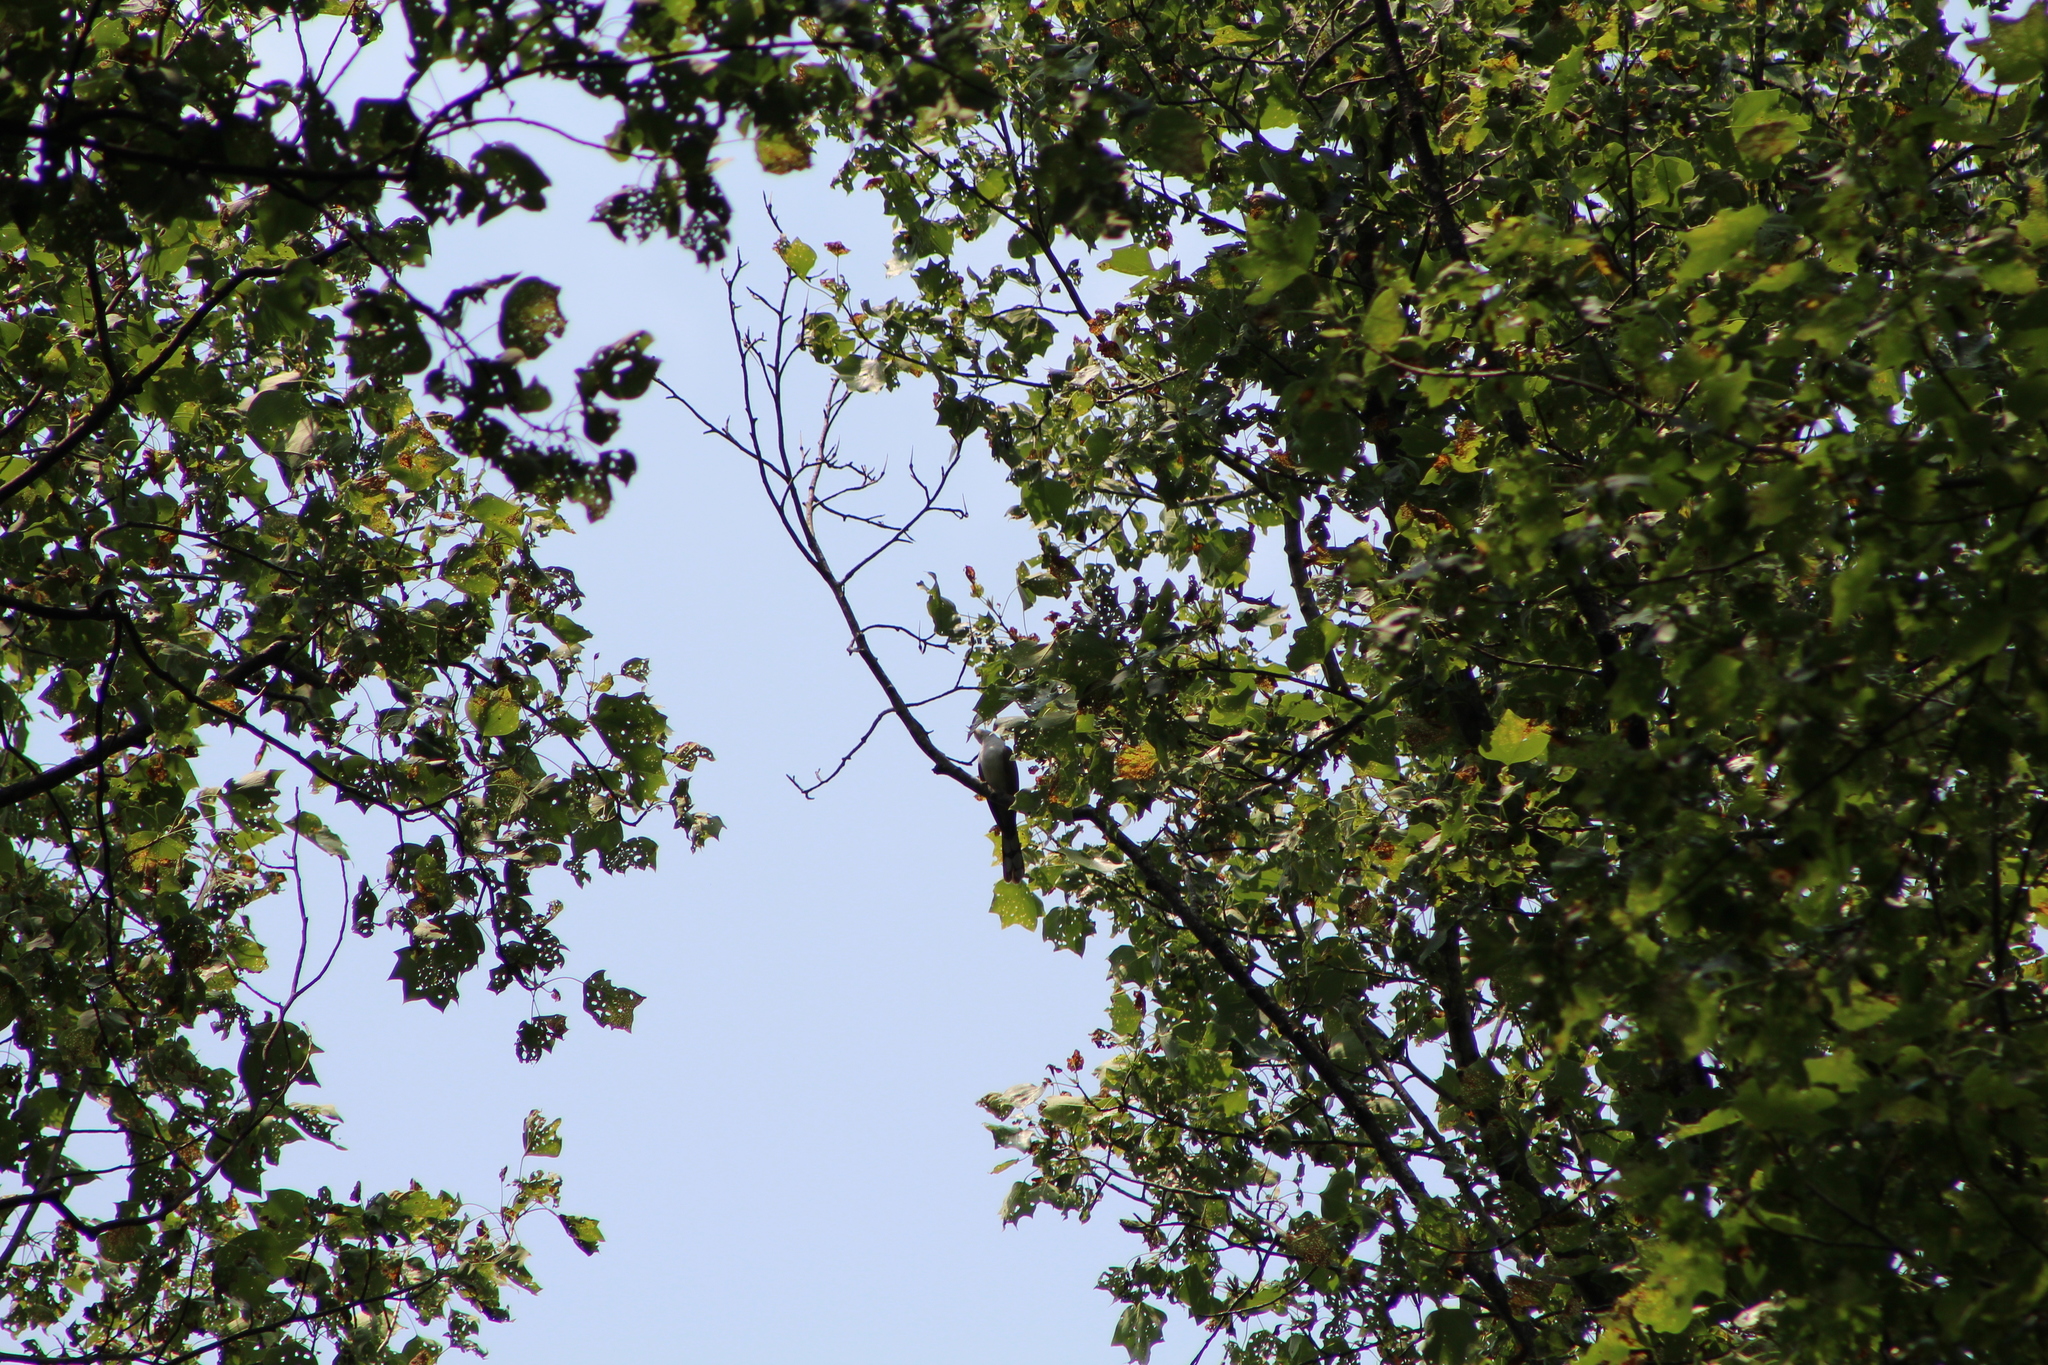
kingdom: Animalia
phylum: Chordata
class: Aves
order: Cuculiformes
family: Cuculidae
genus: Coccyzus
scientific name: Coccyzus americanus
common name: Yellow-billed cuckoo
